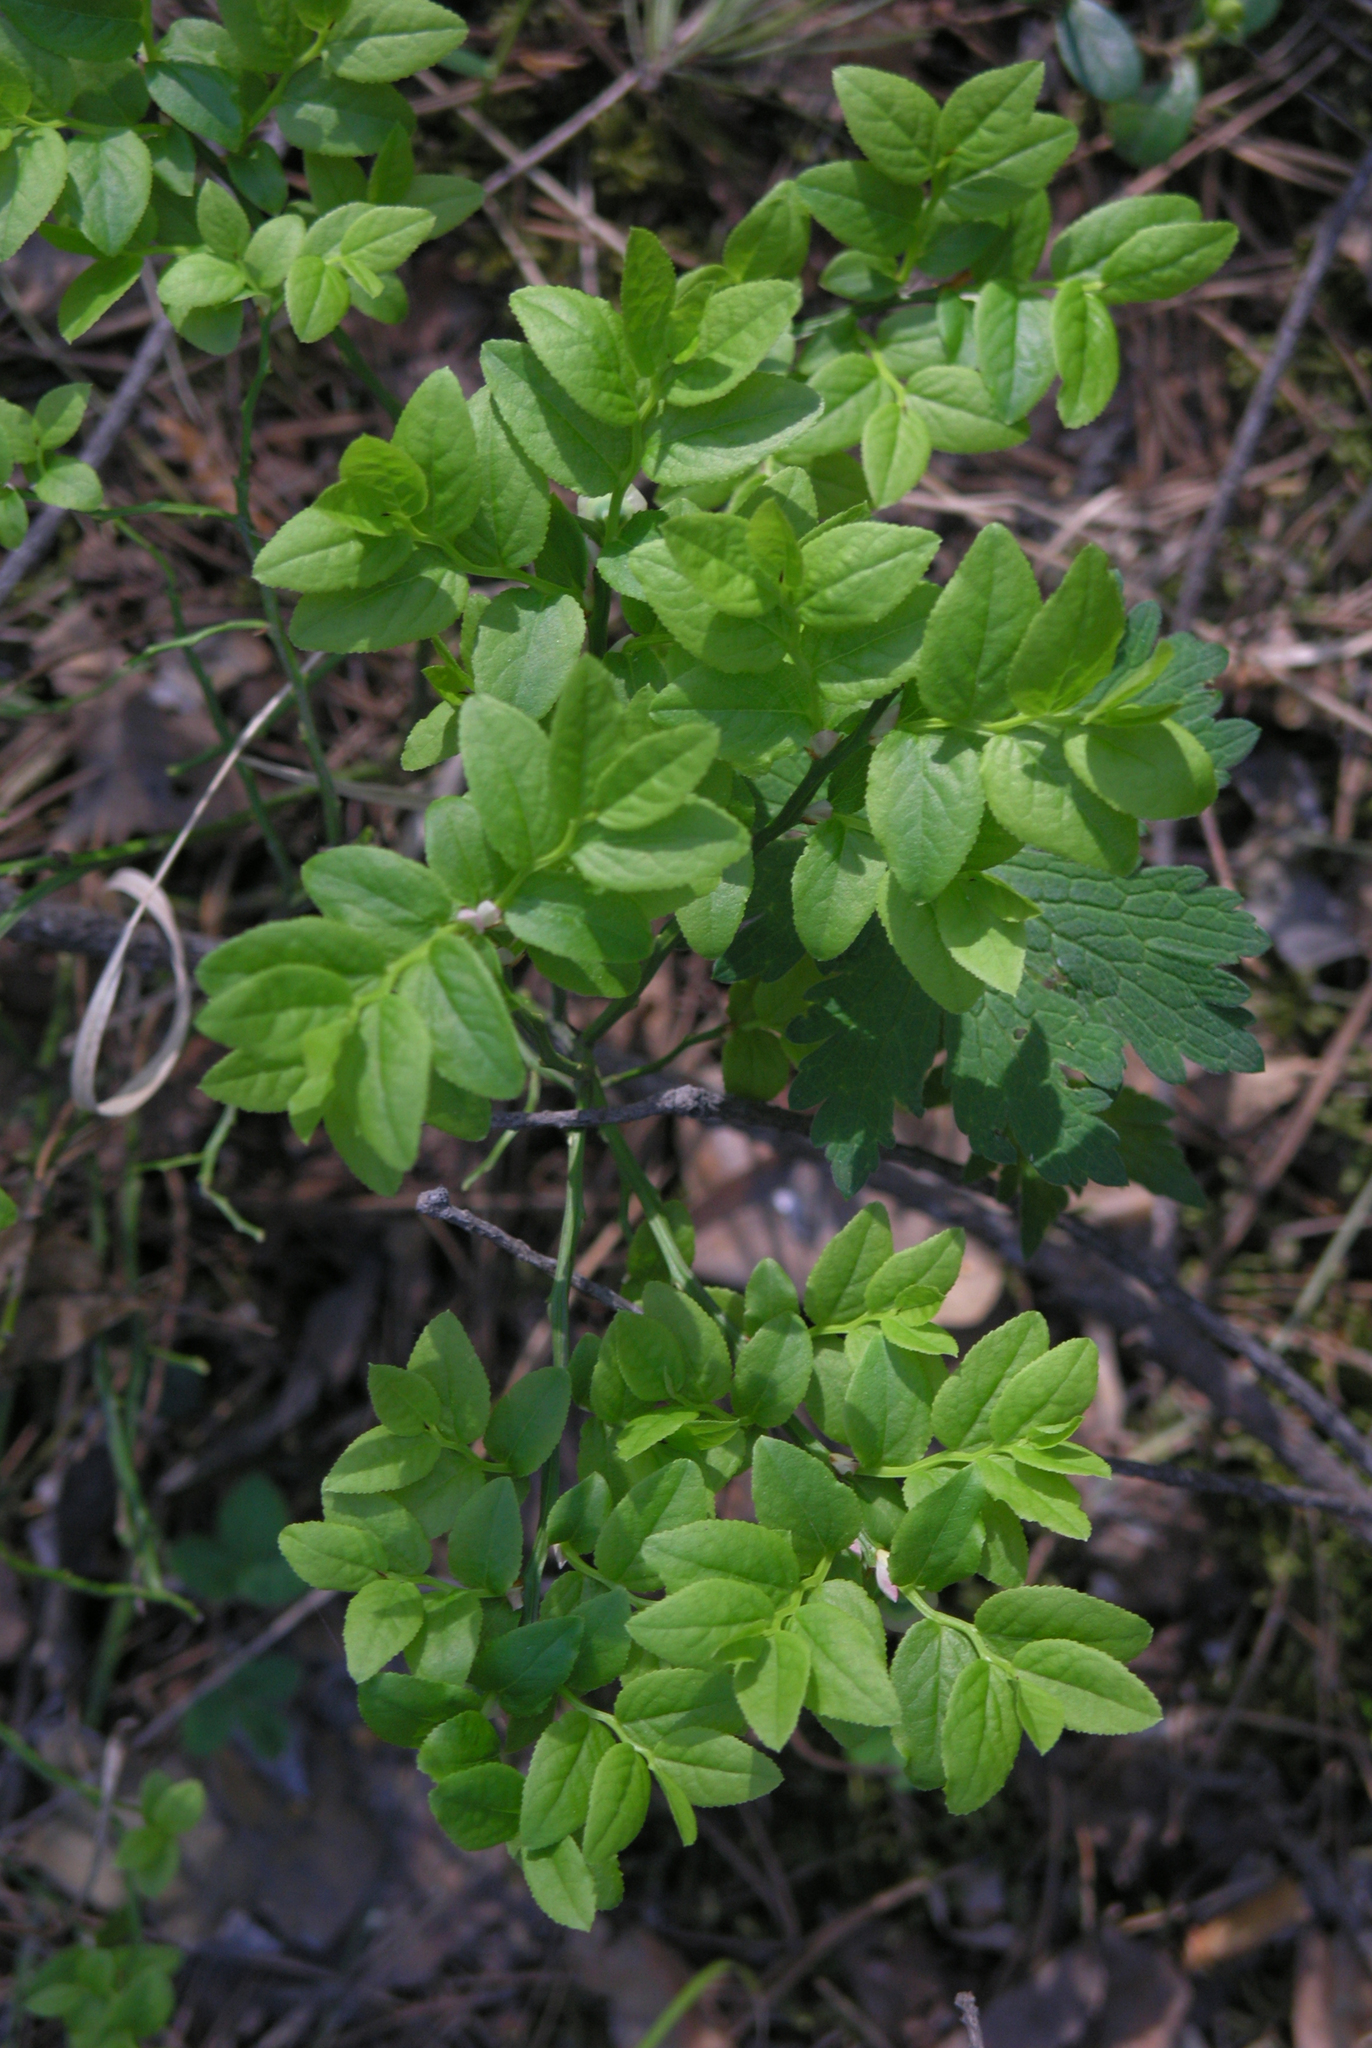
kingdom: Plantae
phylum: Tracheophyta
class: Magnoliopsida
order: Ericales
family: Ericaceae
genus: Vaccinium
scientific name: Vaccinium myrtillus
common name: Bilberry
